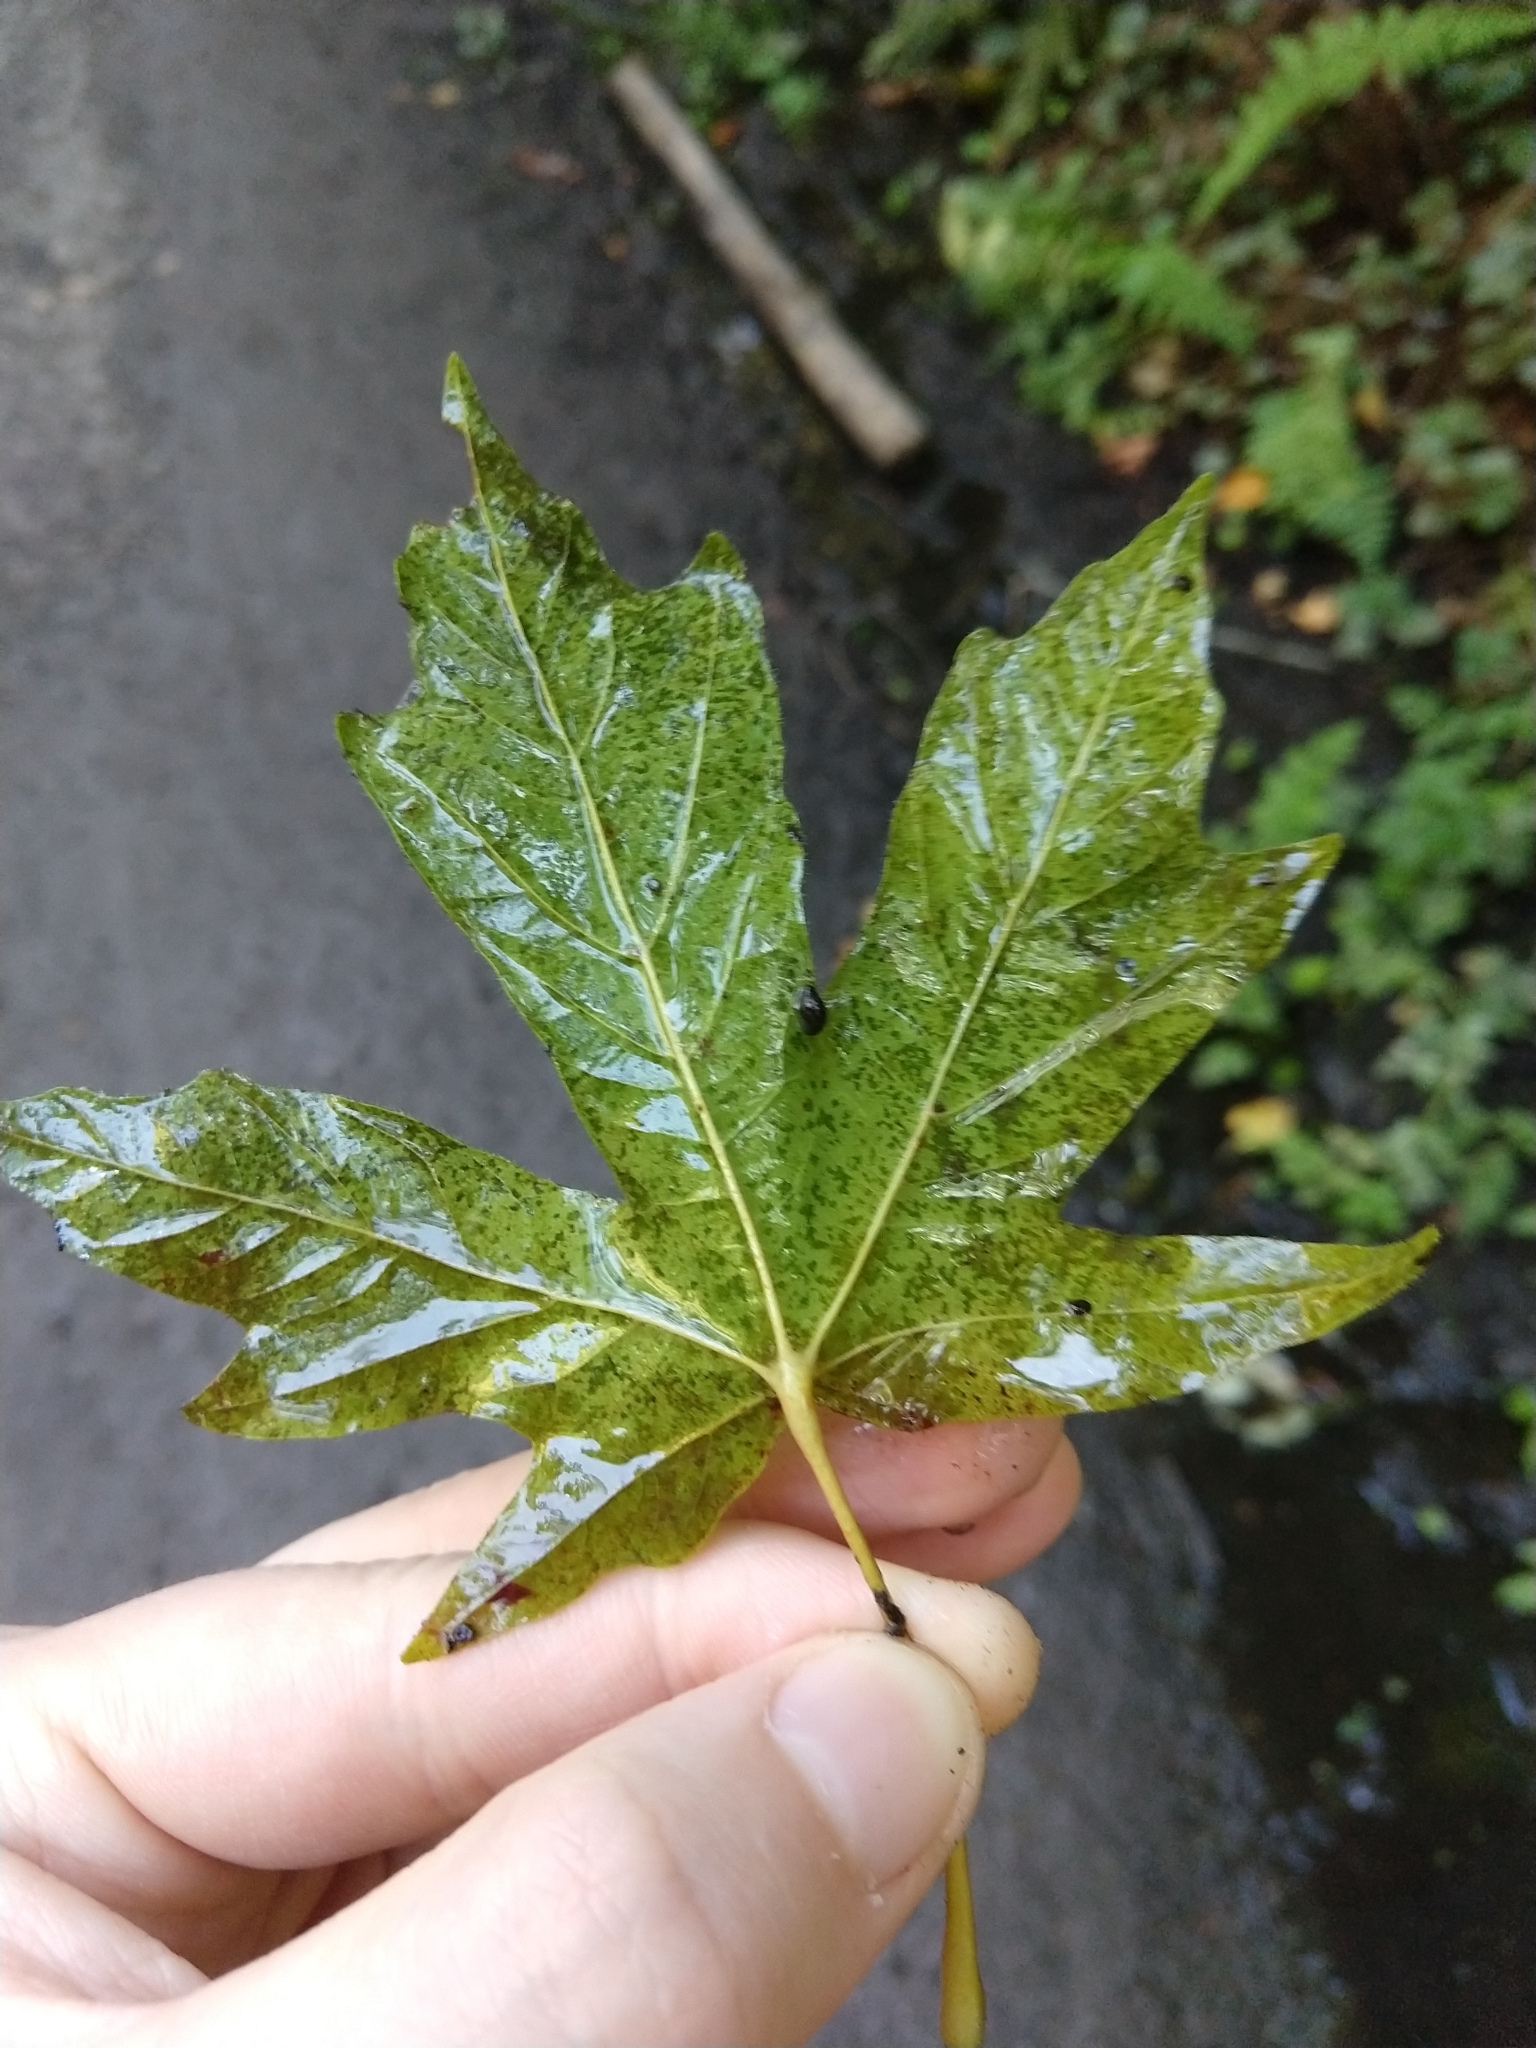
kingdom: Plantae
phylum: Tracheophyta
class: Magnoliopsida
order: Sapindales
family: Sapindaceae
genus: Acer
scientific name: Acer macrophyllum
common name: Oregon maple
